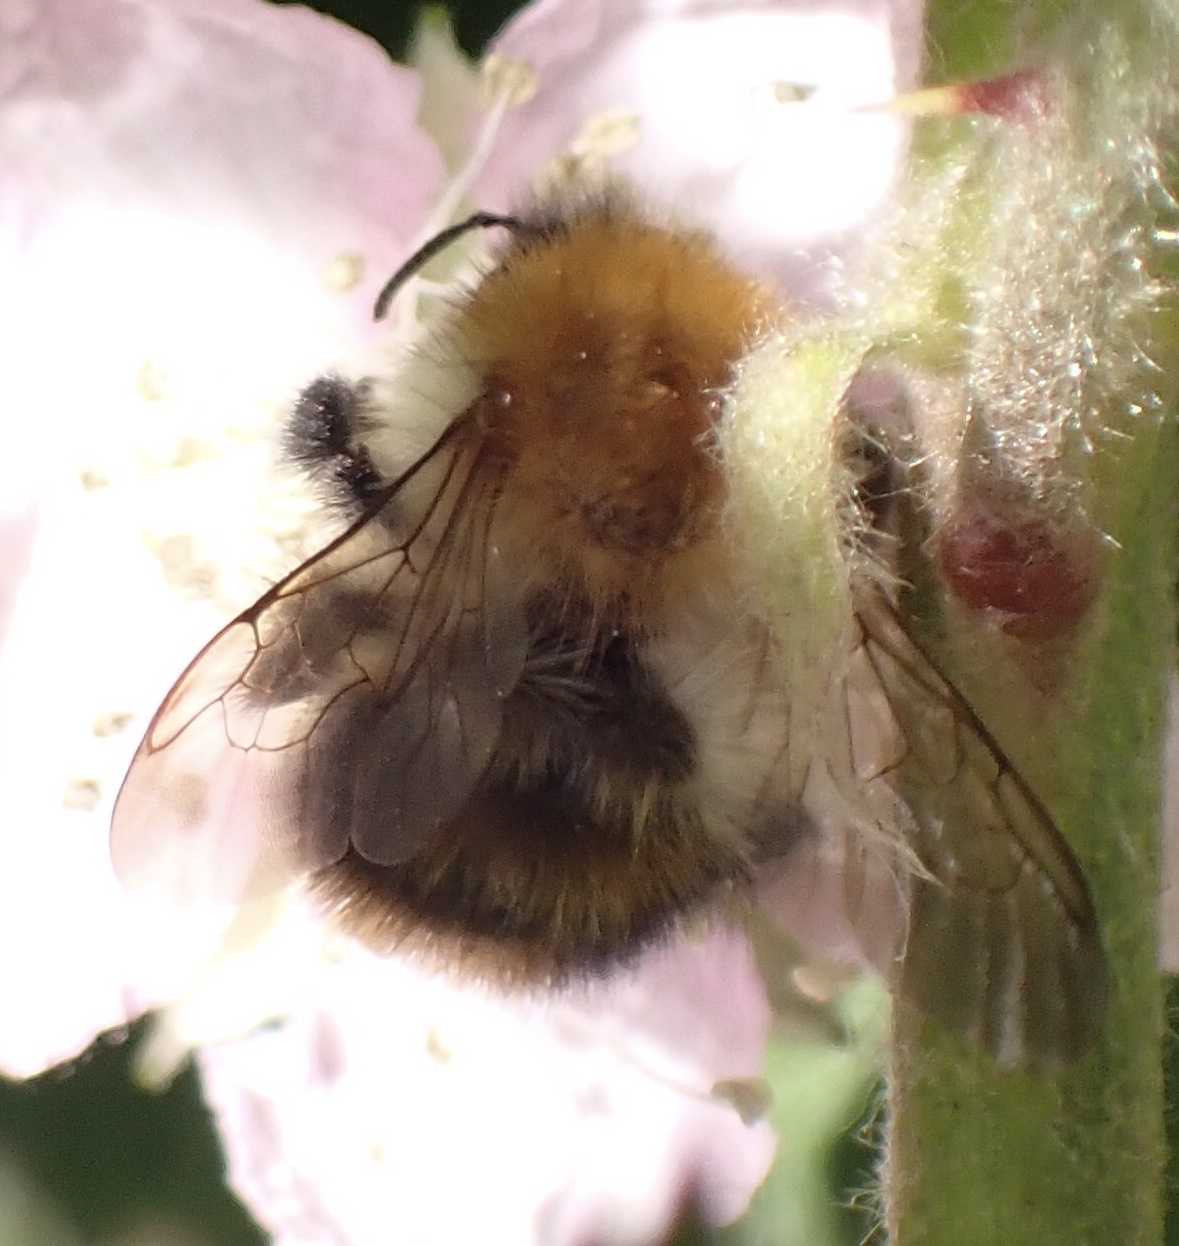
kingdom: Animalia
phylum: Arthropoda
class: Insecta
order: Hymenoptera
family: Apidae
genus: Bombus
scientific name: Bombus pascuorum
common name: Common carder bee
